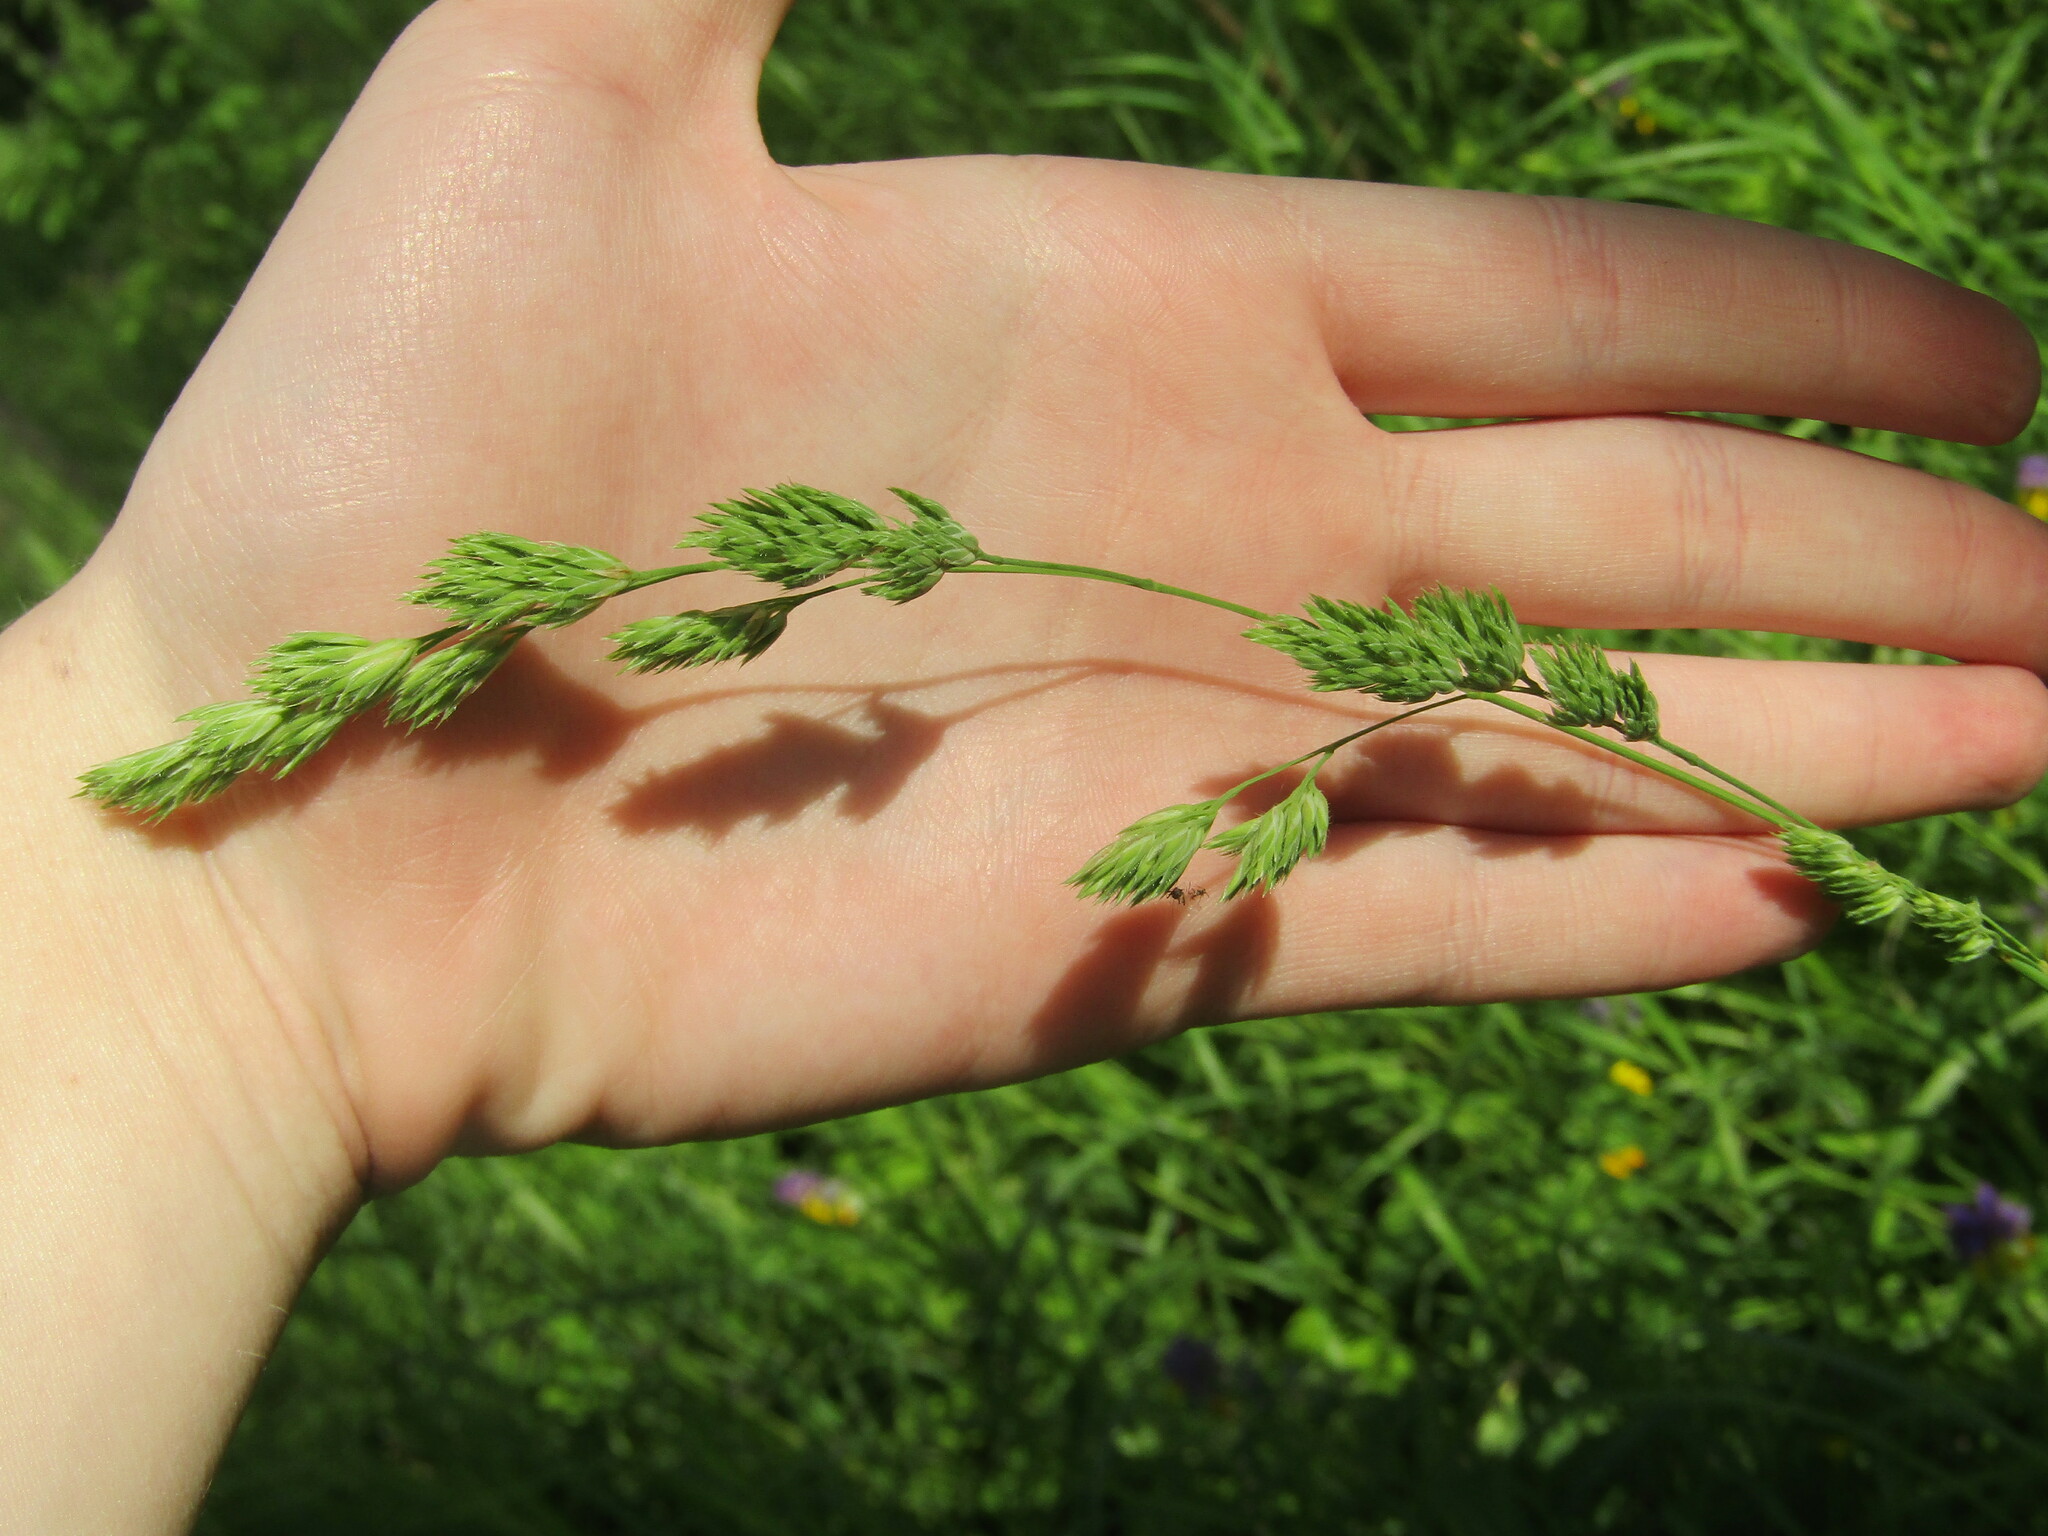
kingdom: Plantae
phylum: Tracheophyta
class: Liliopsida
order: Poales
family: Poaceae
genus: Dactylis
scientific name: Dactylis glomerata
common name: Orchardgrass
